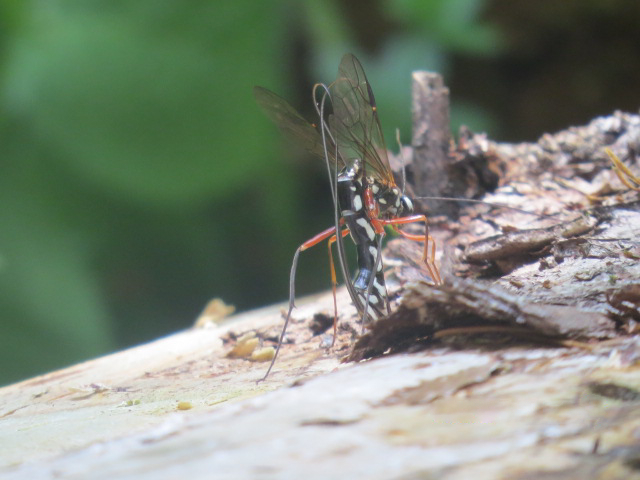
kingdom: Animalia
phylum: Arthropoda
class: Insecta
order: Hymenoptera
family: Ichneumonidae
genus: Megarhyssa
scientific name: Megarhyssa rixator
